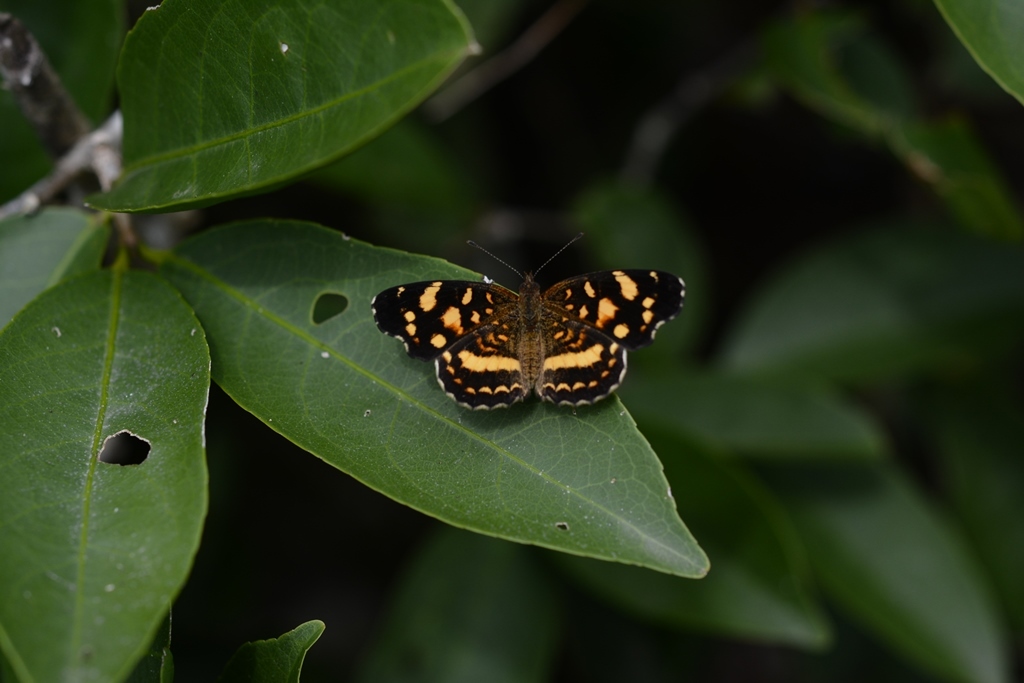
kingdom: Animalia
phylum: Arthropoda
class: Insecta
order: Lepidoptera
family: Nymphalidae
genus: Anthanassa
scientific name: Anthanassa tulcis
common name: Pale-banded crescent
